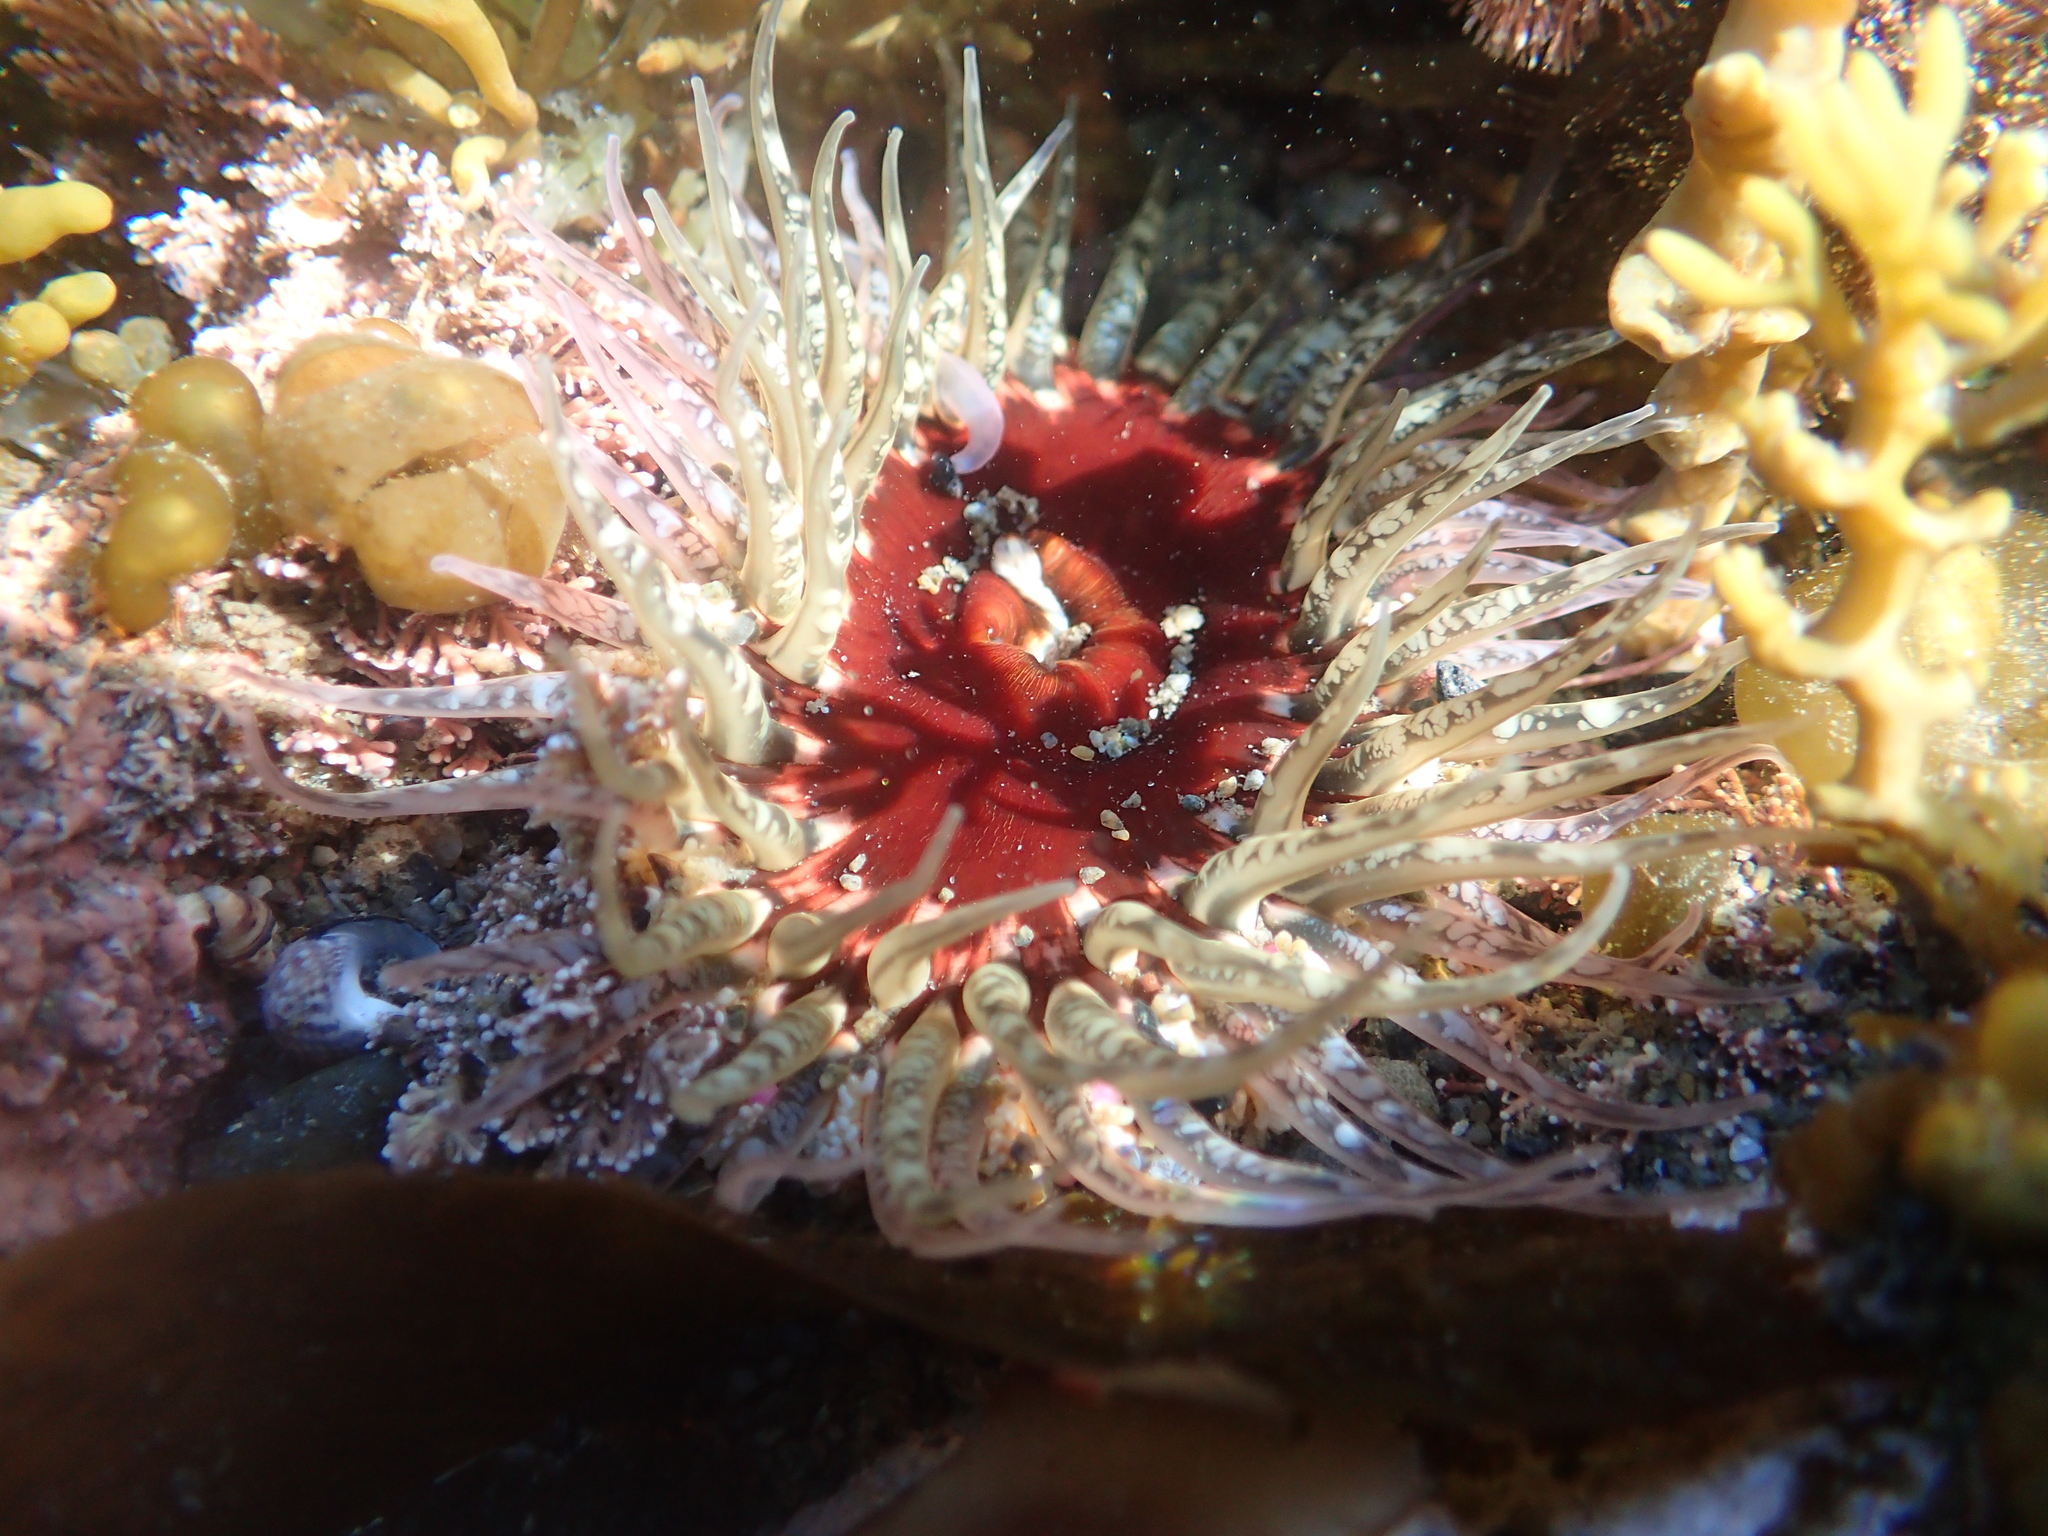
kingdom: Animalia
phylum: Cnidaria
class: Anthozoa
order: Actiniaria
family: Actiniidae
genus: Oulactis
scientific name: Oulactis muscosa
